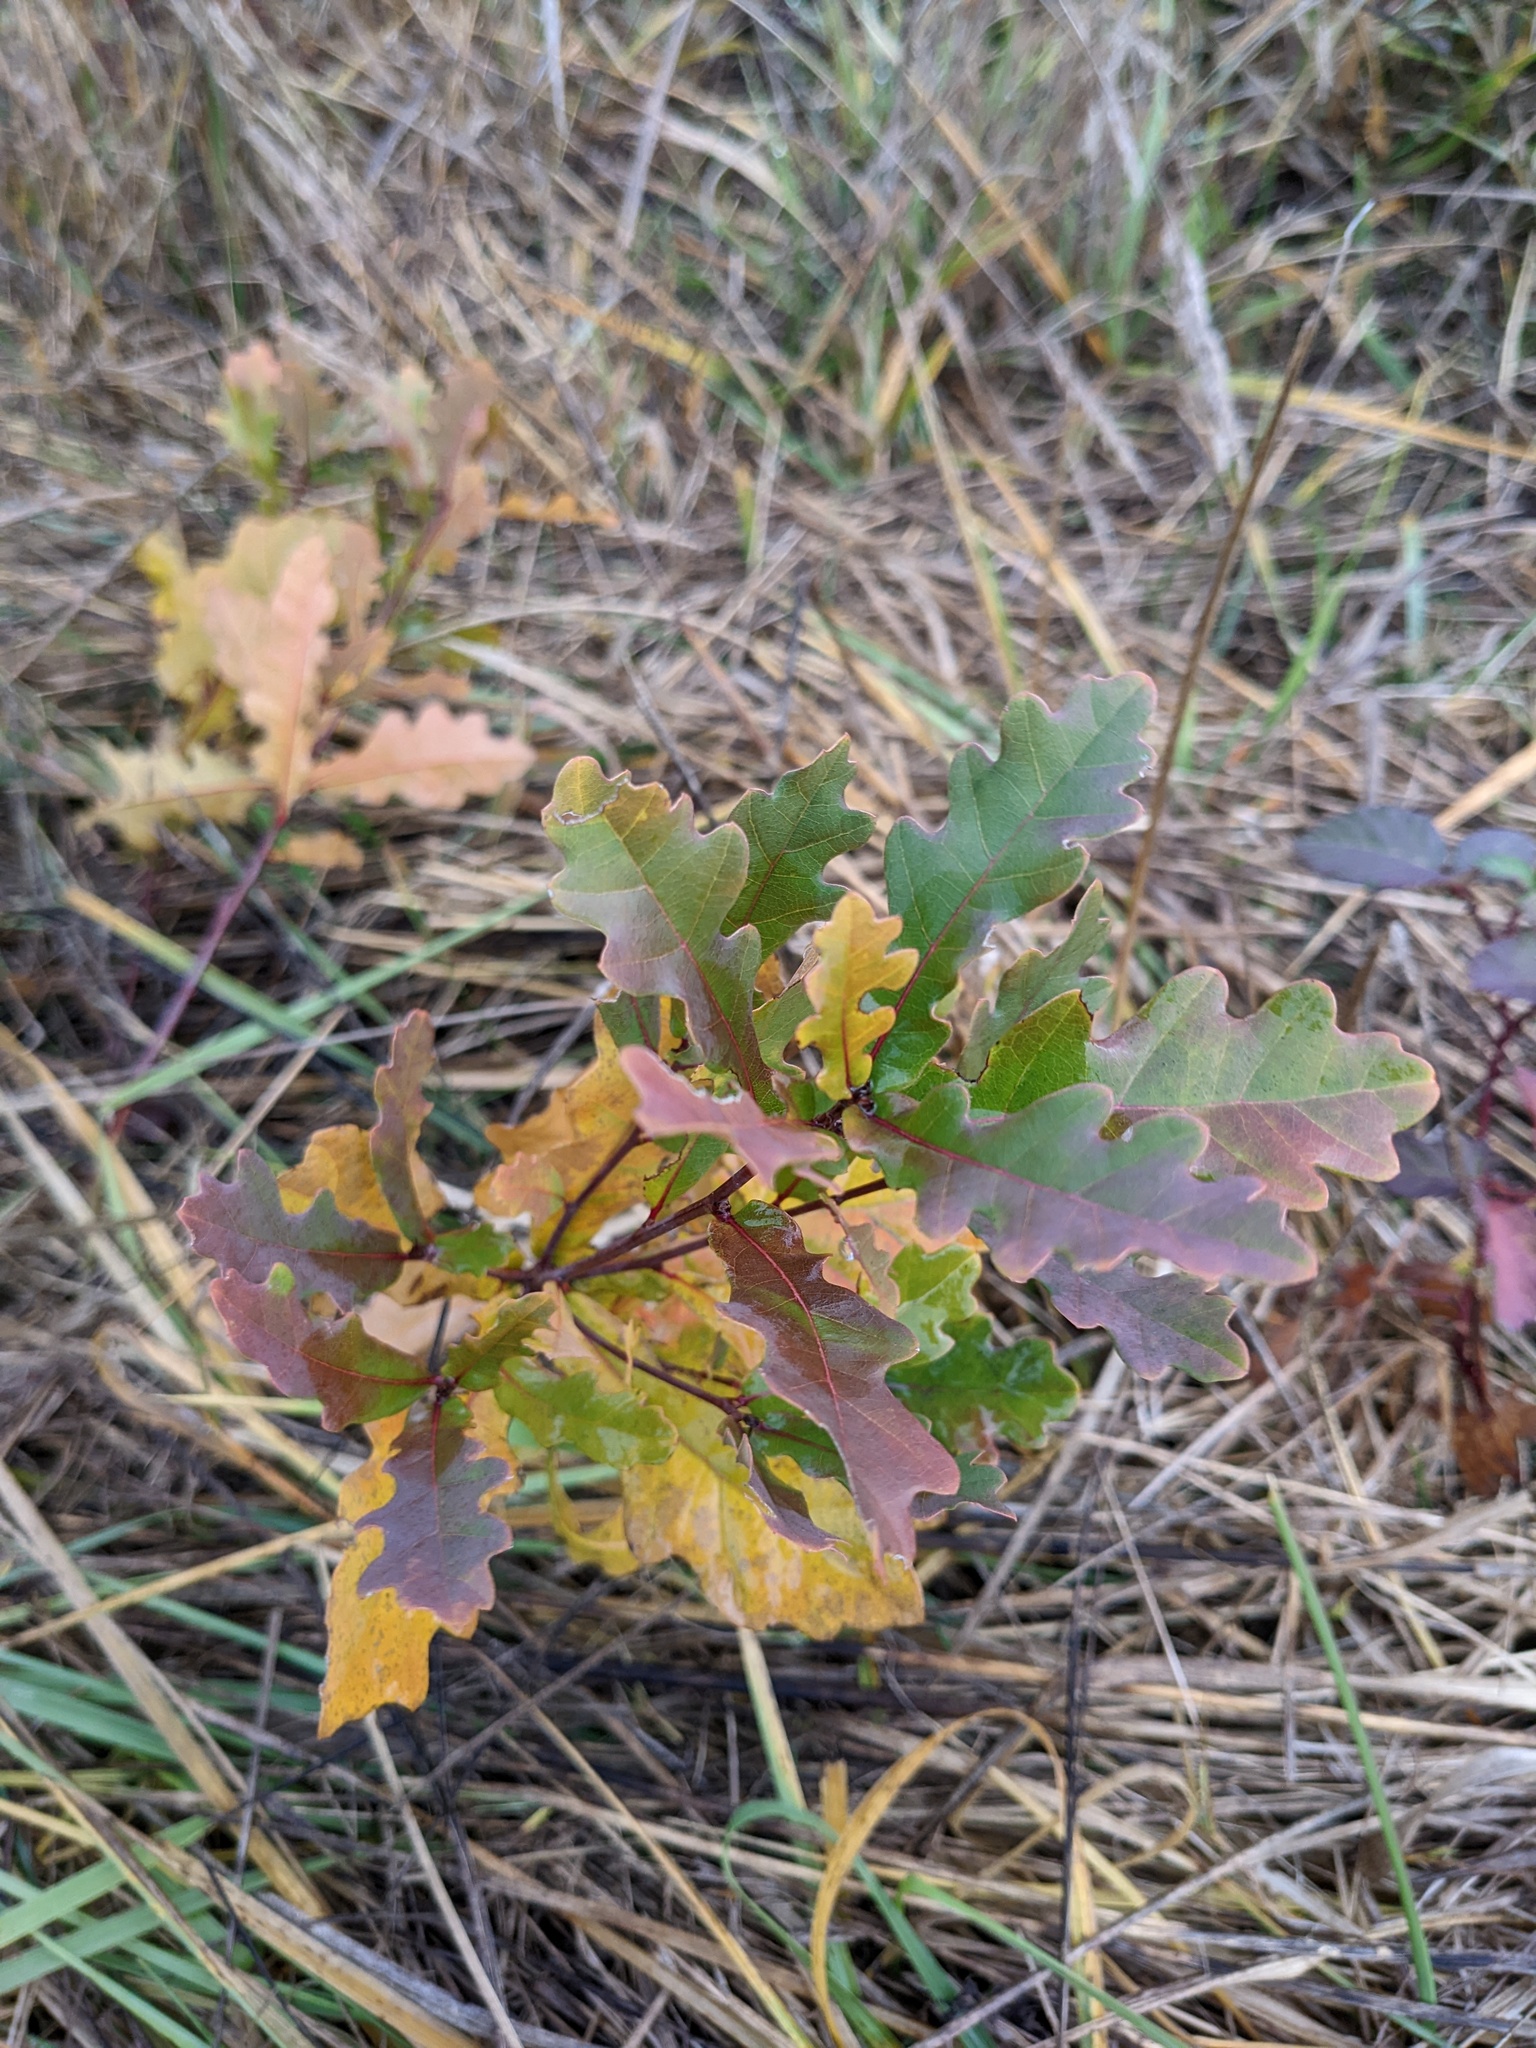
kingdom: Plantae
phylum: Tracheophyta
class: Magnoliopsida
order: Fagales
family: Fagaceae
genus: Quercus
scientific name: Quercus robur
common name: Pedunculate oak
